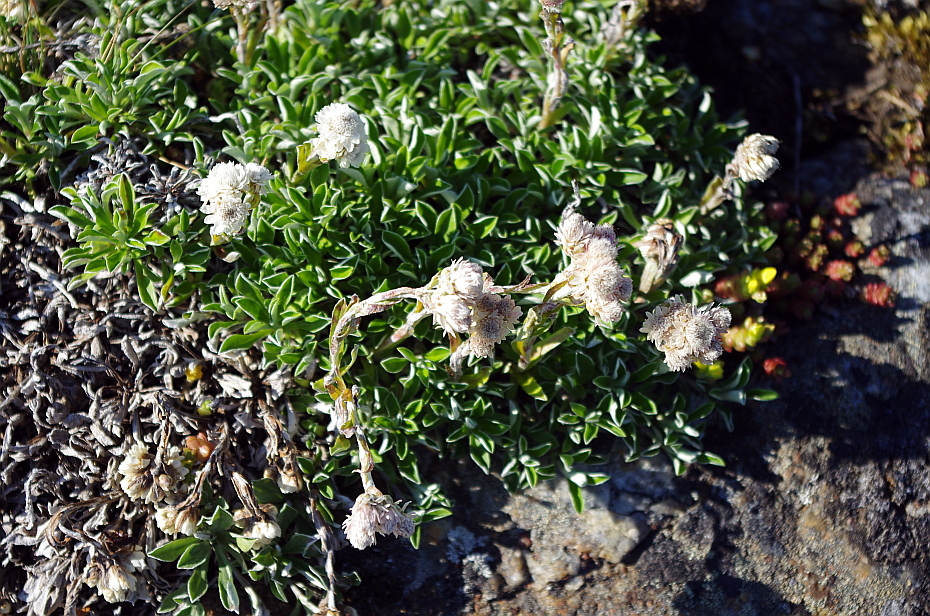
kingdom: Plantae
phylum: Tracheophyta
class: Magnoliopsida
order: Asterales
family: Asteraceae
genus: Antennaria
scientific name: Antennaria dioica
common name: Mountain everlasting
